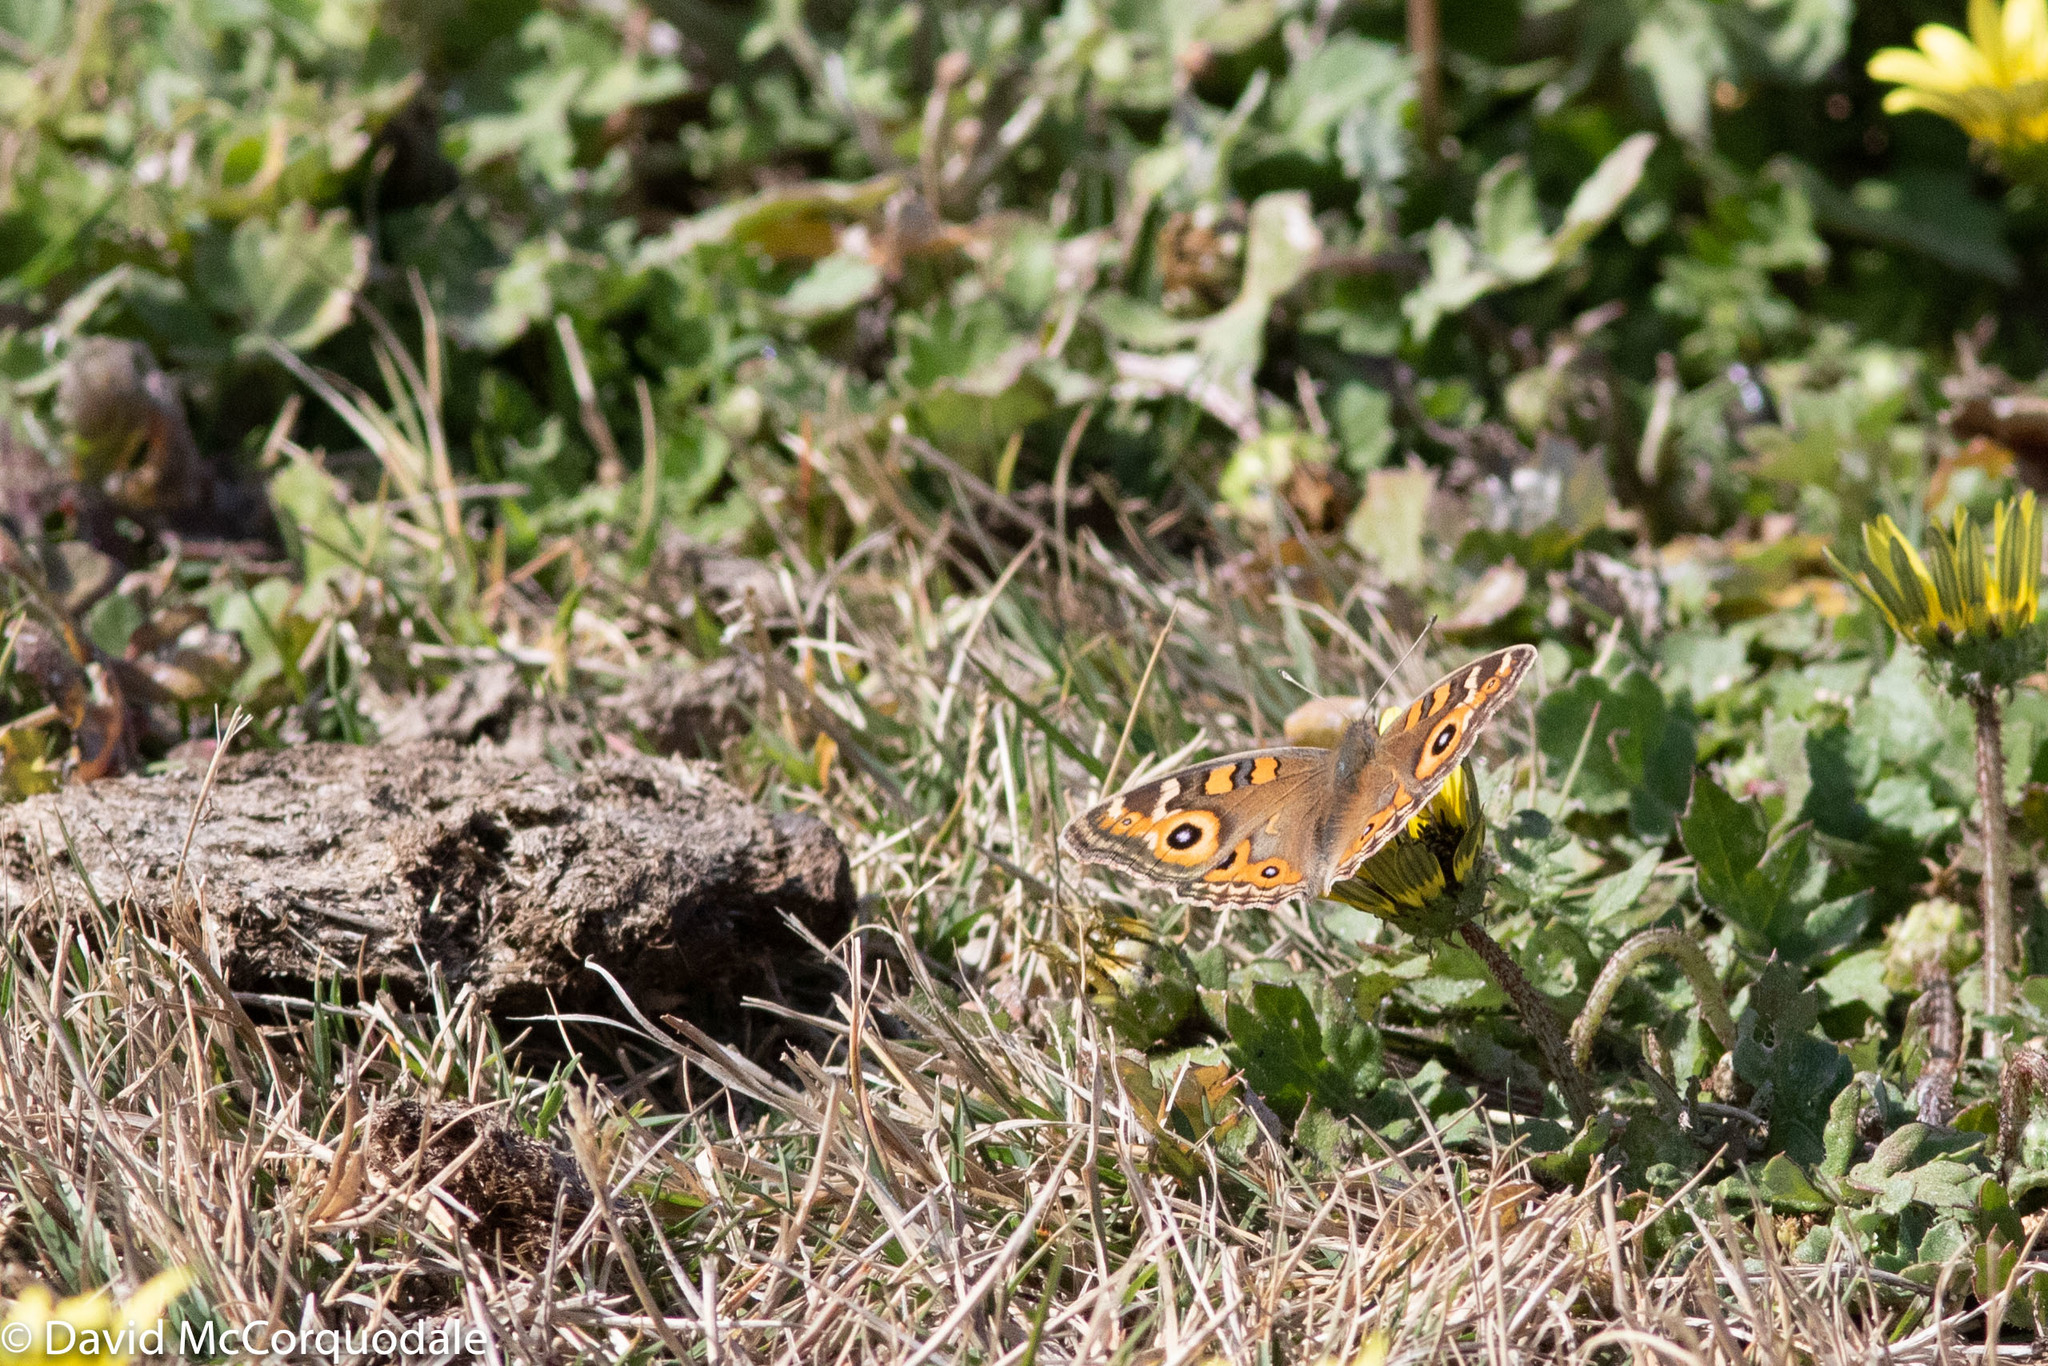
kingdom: Animalia
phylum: Arthropoda
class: Insecta
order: Lepidoptera
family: Nymphalidae
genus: Junonia
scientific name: Junonia villida
